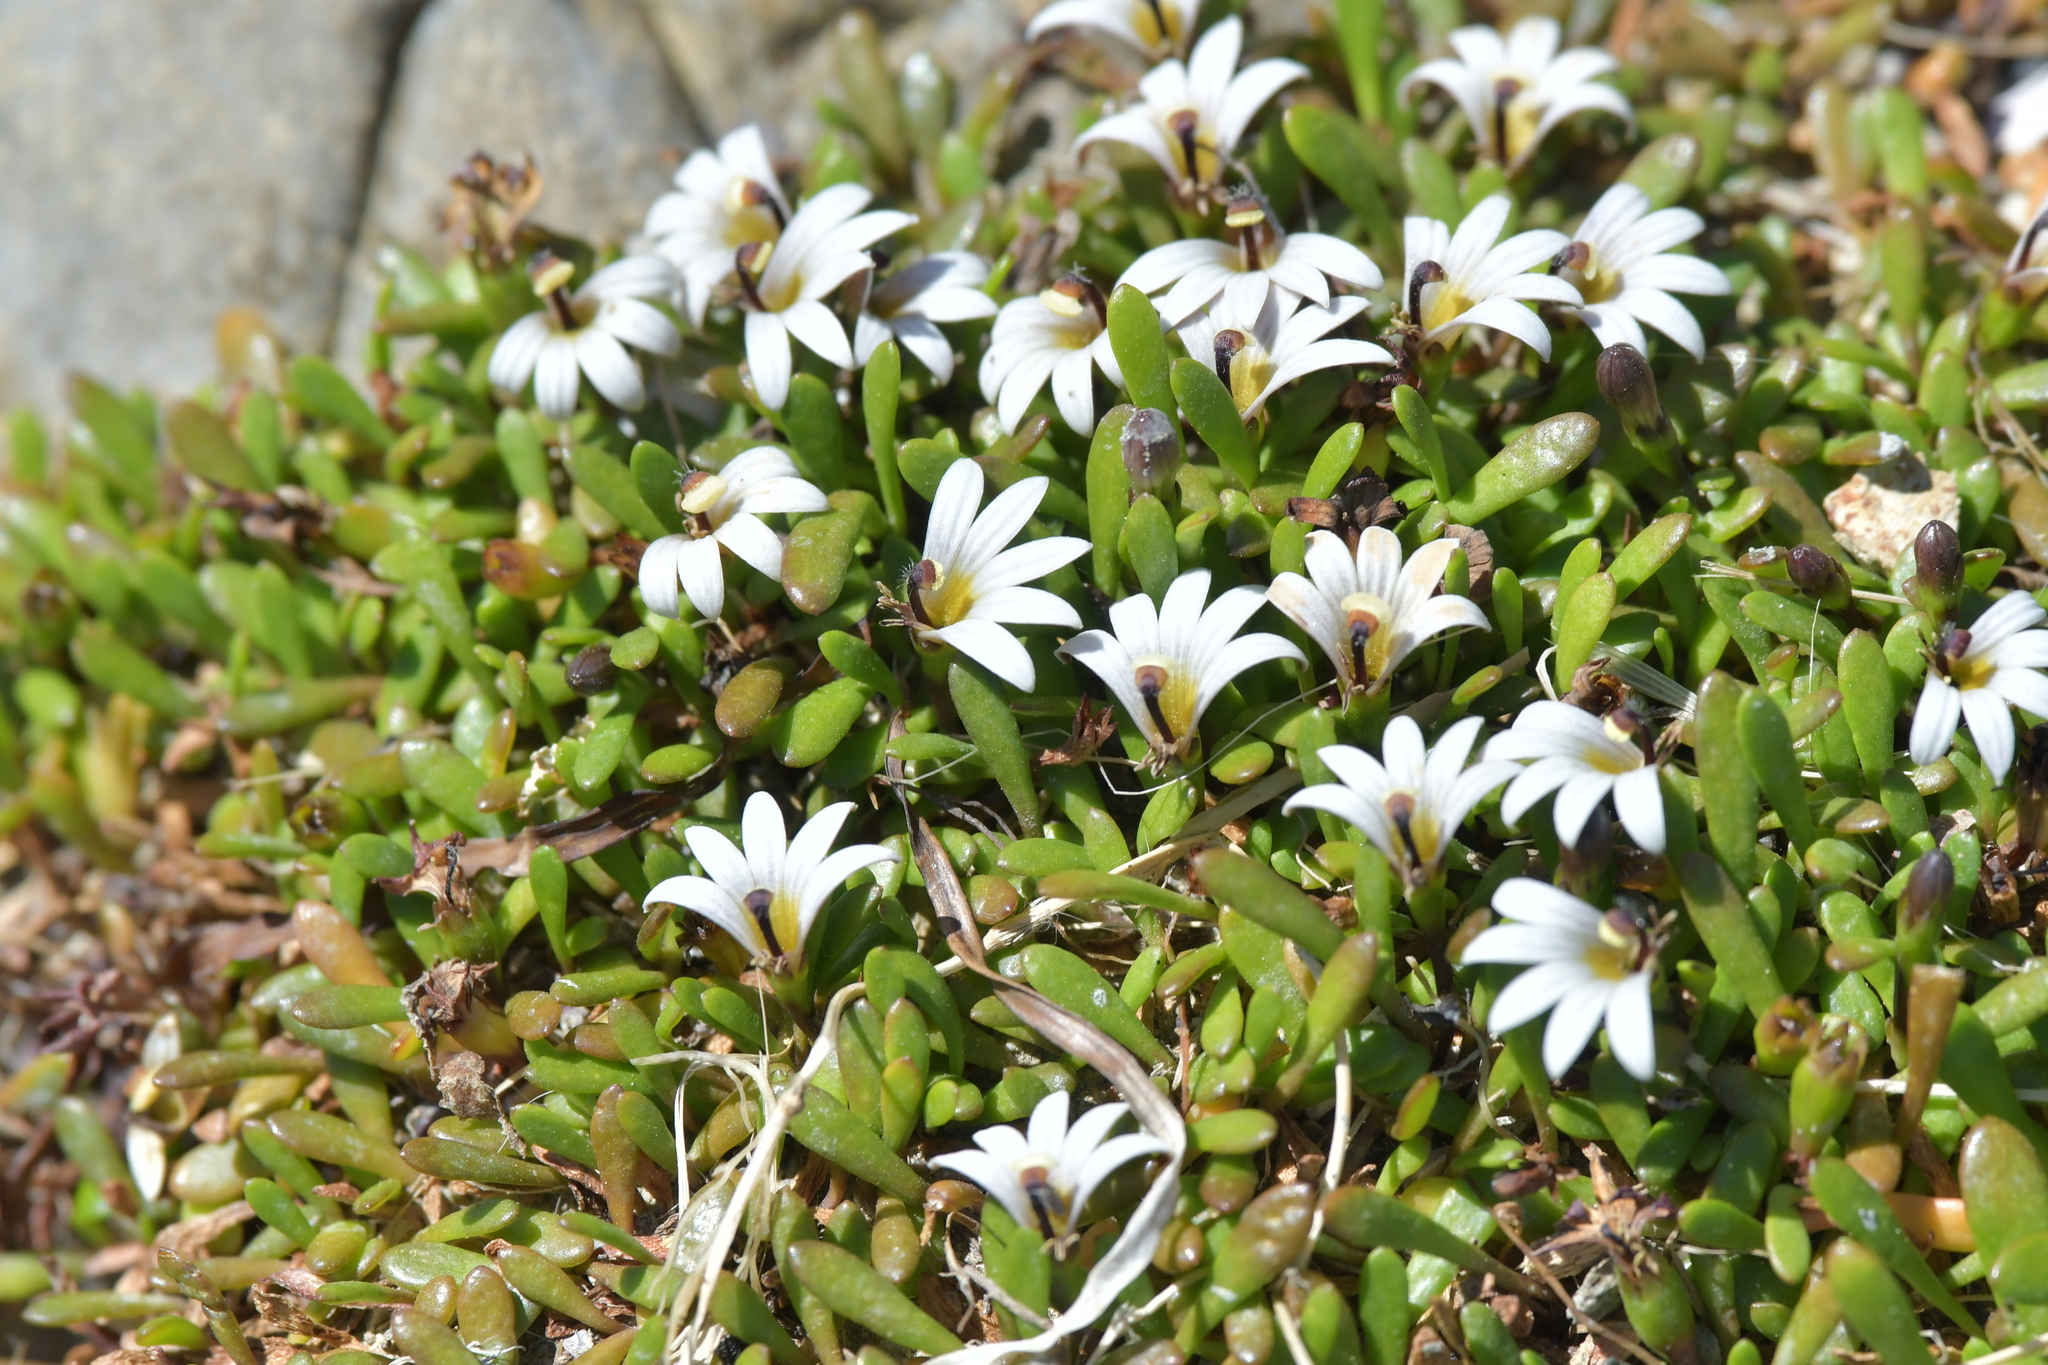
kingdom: Plantae
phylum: Tracheophyta
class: Magnoliopsida
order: Asterales
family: Goodeniaceae
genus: Goodenia
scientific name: Goodenia radicans
